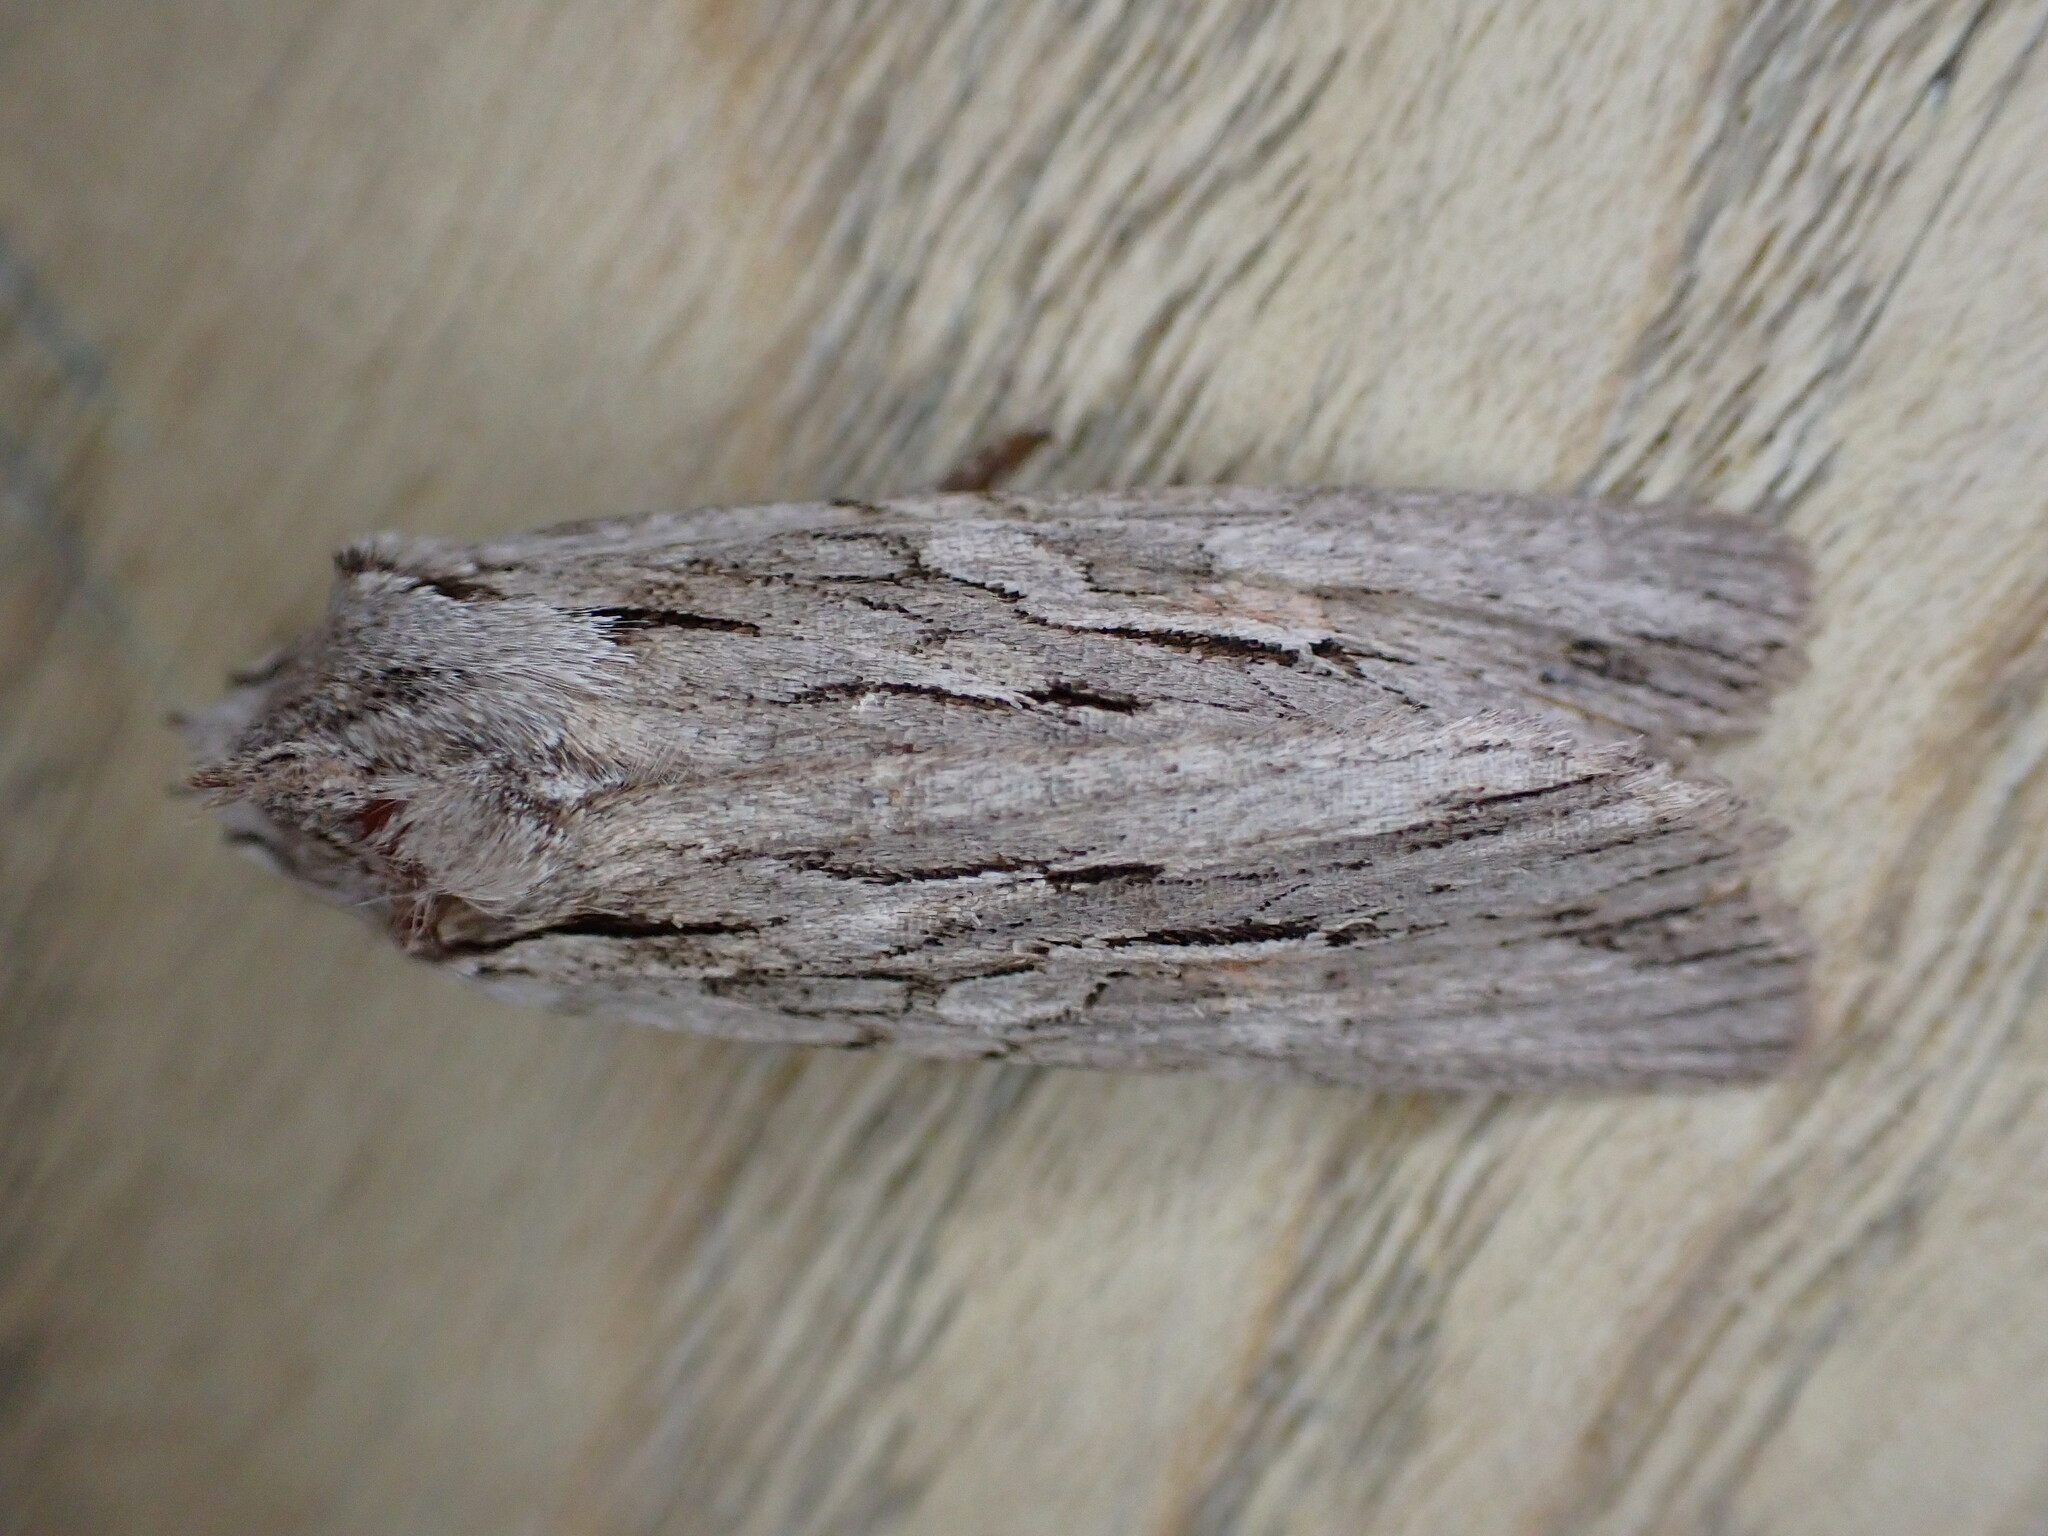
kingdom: Animalia
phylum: Arthropoda
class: Insecta
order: Lepidoptera
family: Noctuidae
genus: Lithophane
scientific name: Lithophane leautieri
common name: Blair's shoulder-knot
